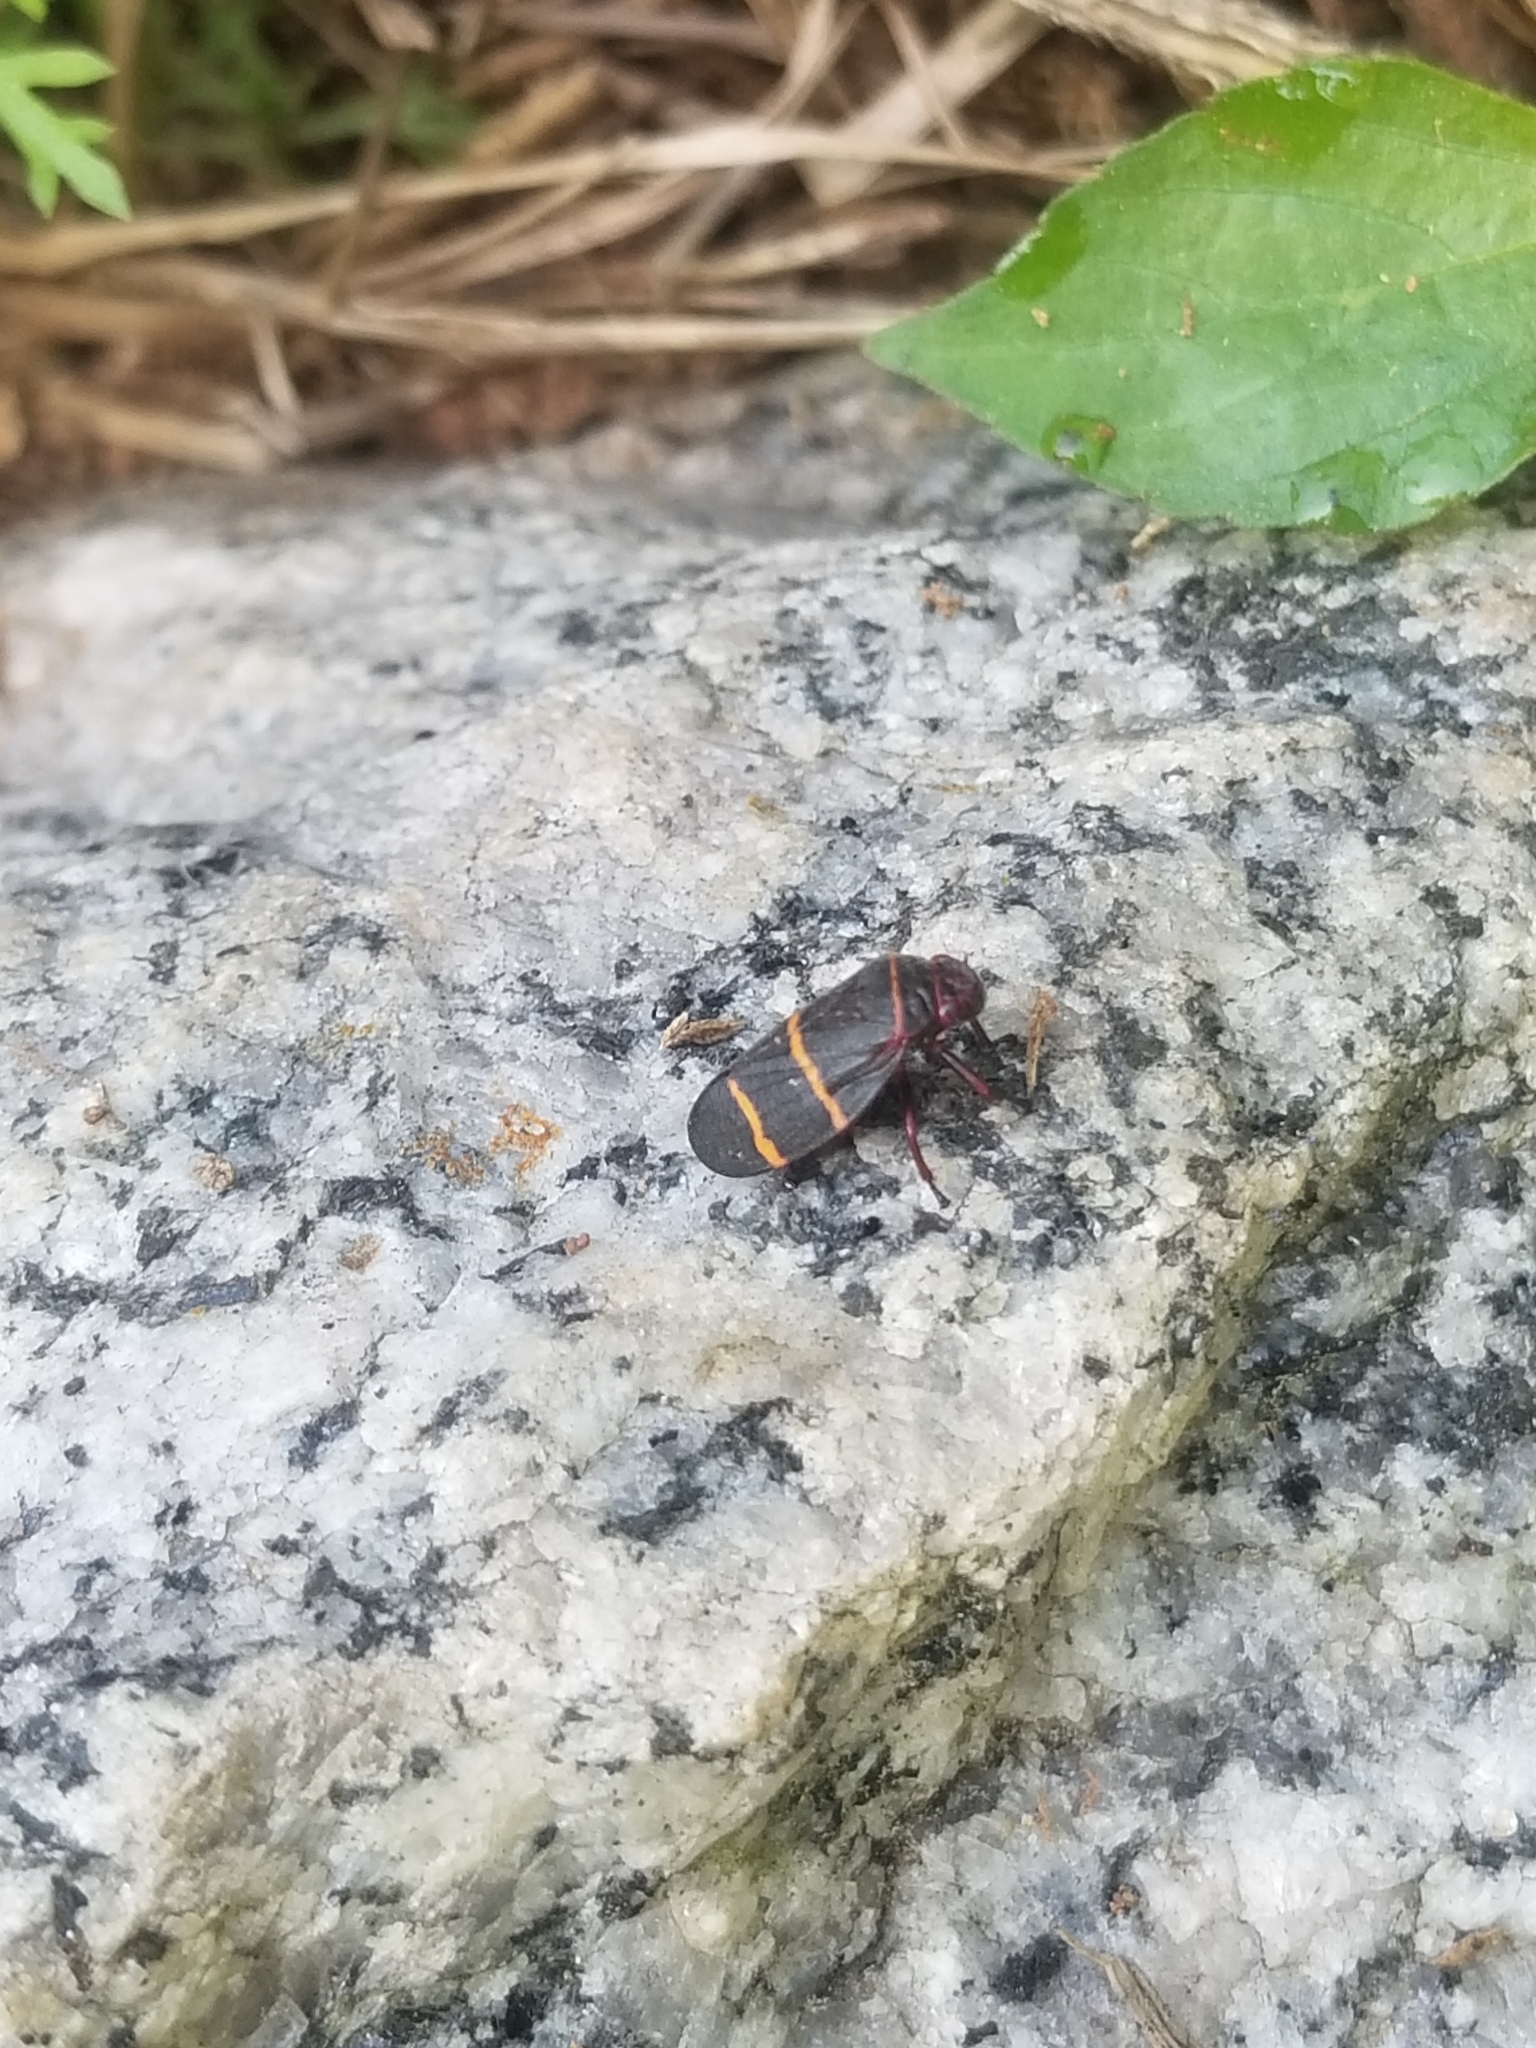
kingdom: Animalia
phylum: Arthropoda
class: Insecta
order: Hemiptera
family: Cercopidae
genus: Prosapia
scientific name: Prosapia bicincta
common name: Twolined spittlebug
